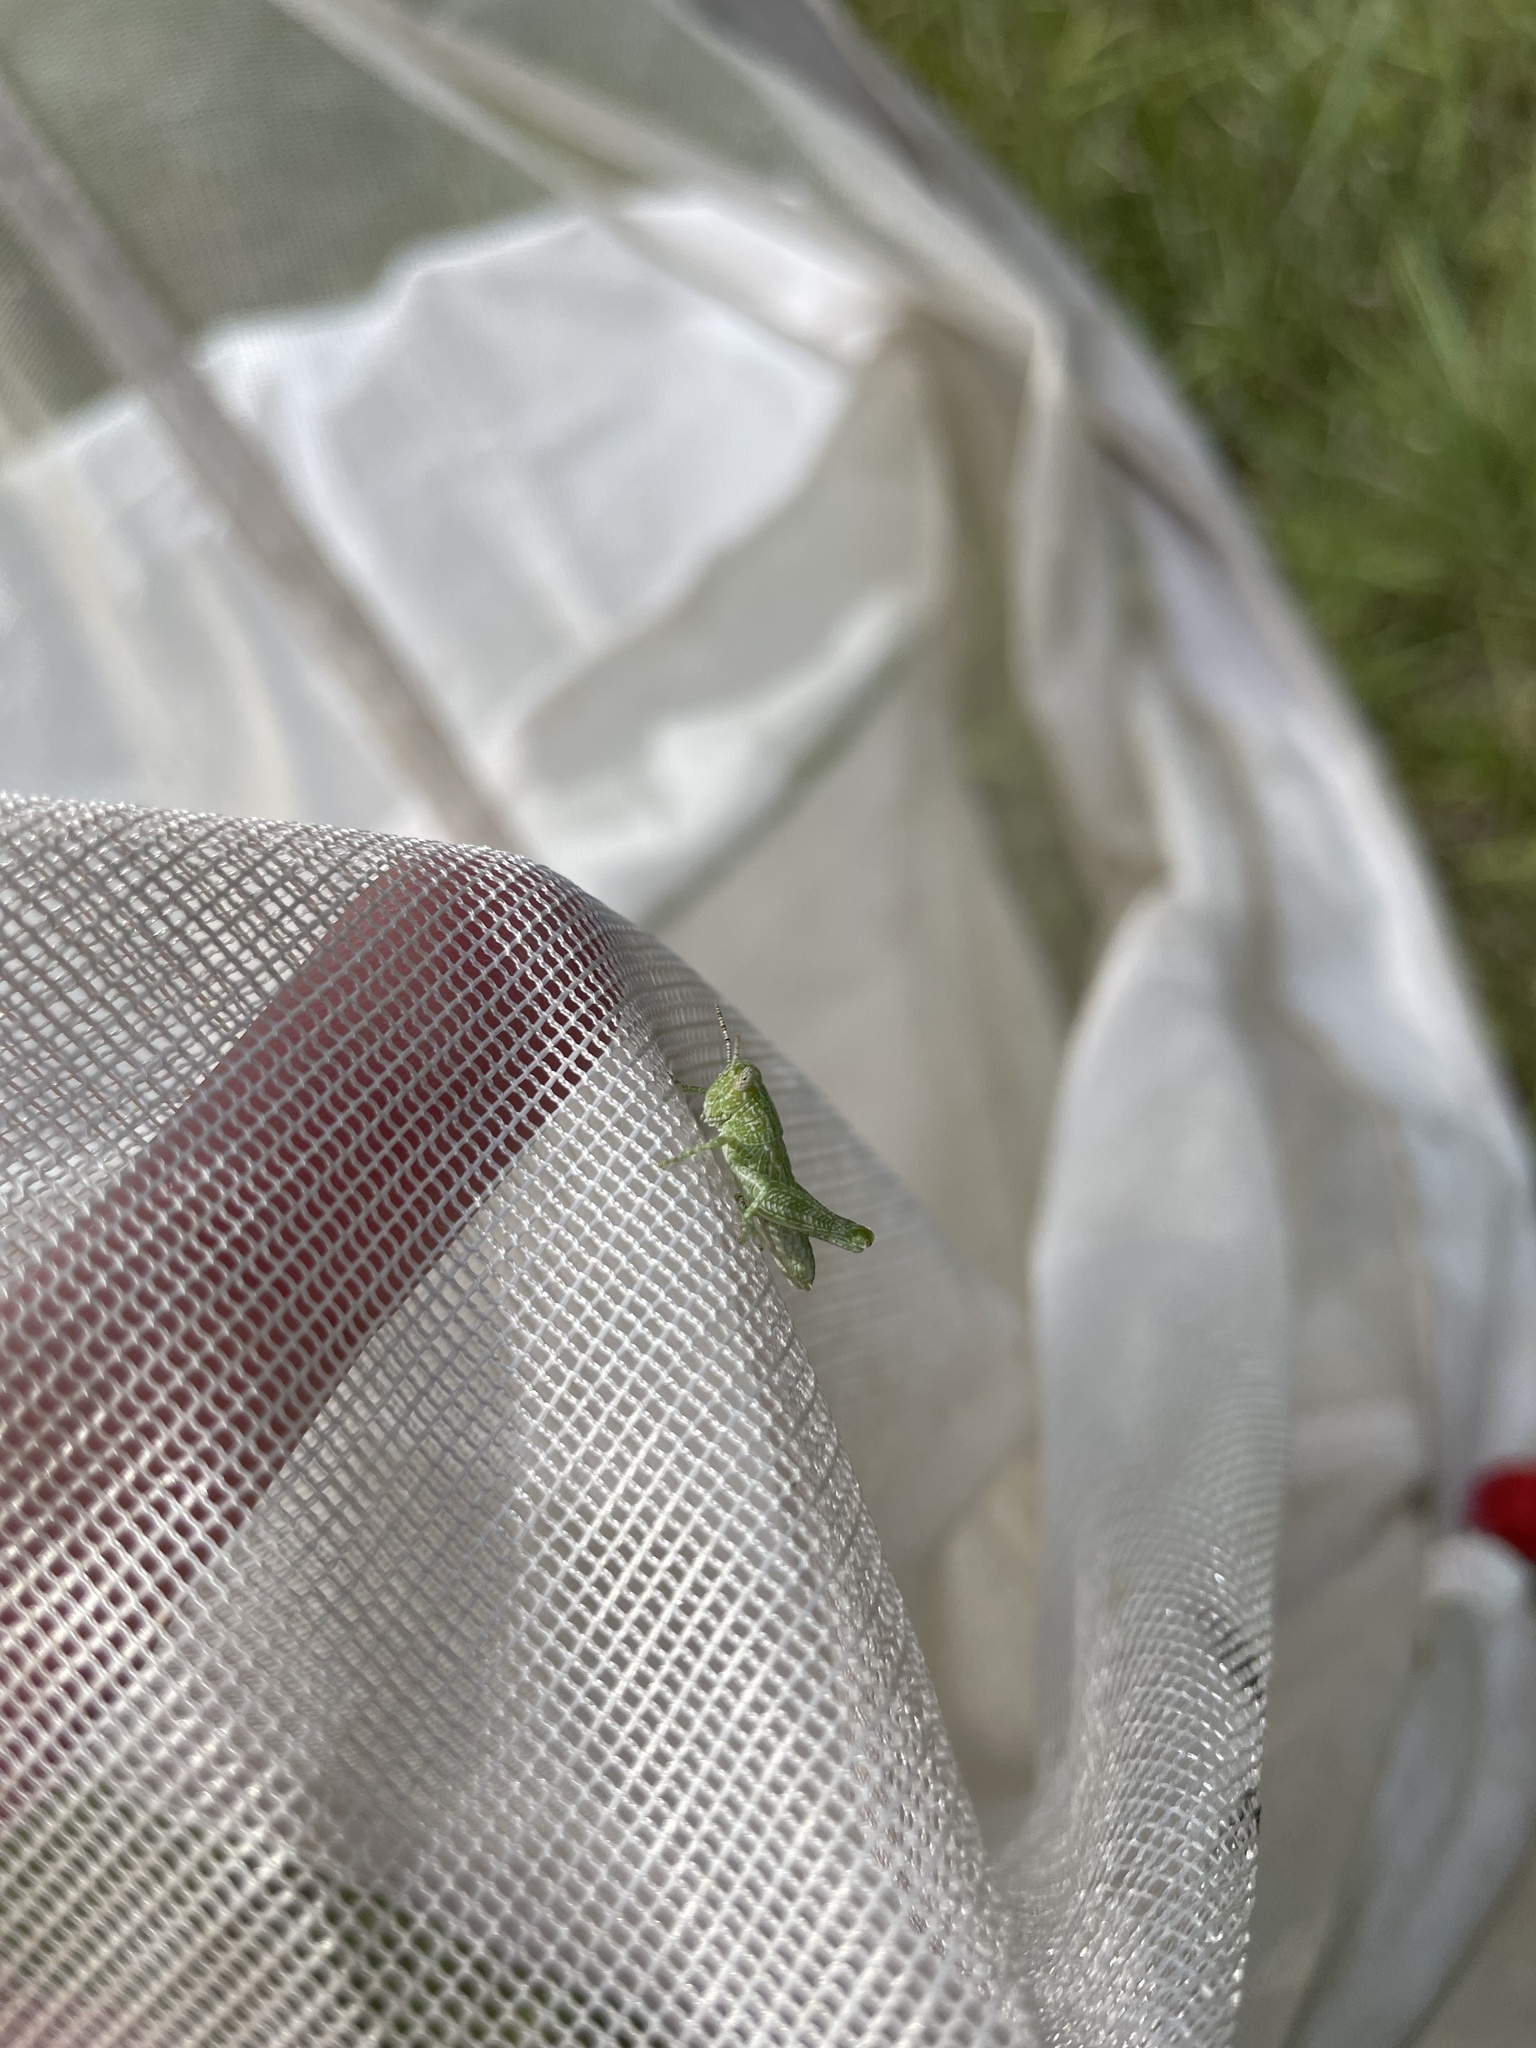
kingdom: Animalia
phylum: Arthropoda
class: Insecta
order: Orthoptera
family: Acrididae
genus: Campylacantha
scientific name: Campylacantha olivacea
